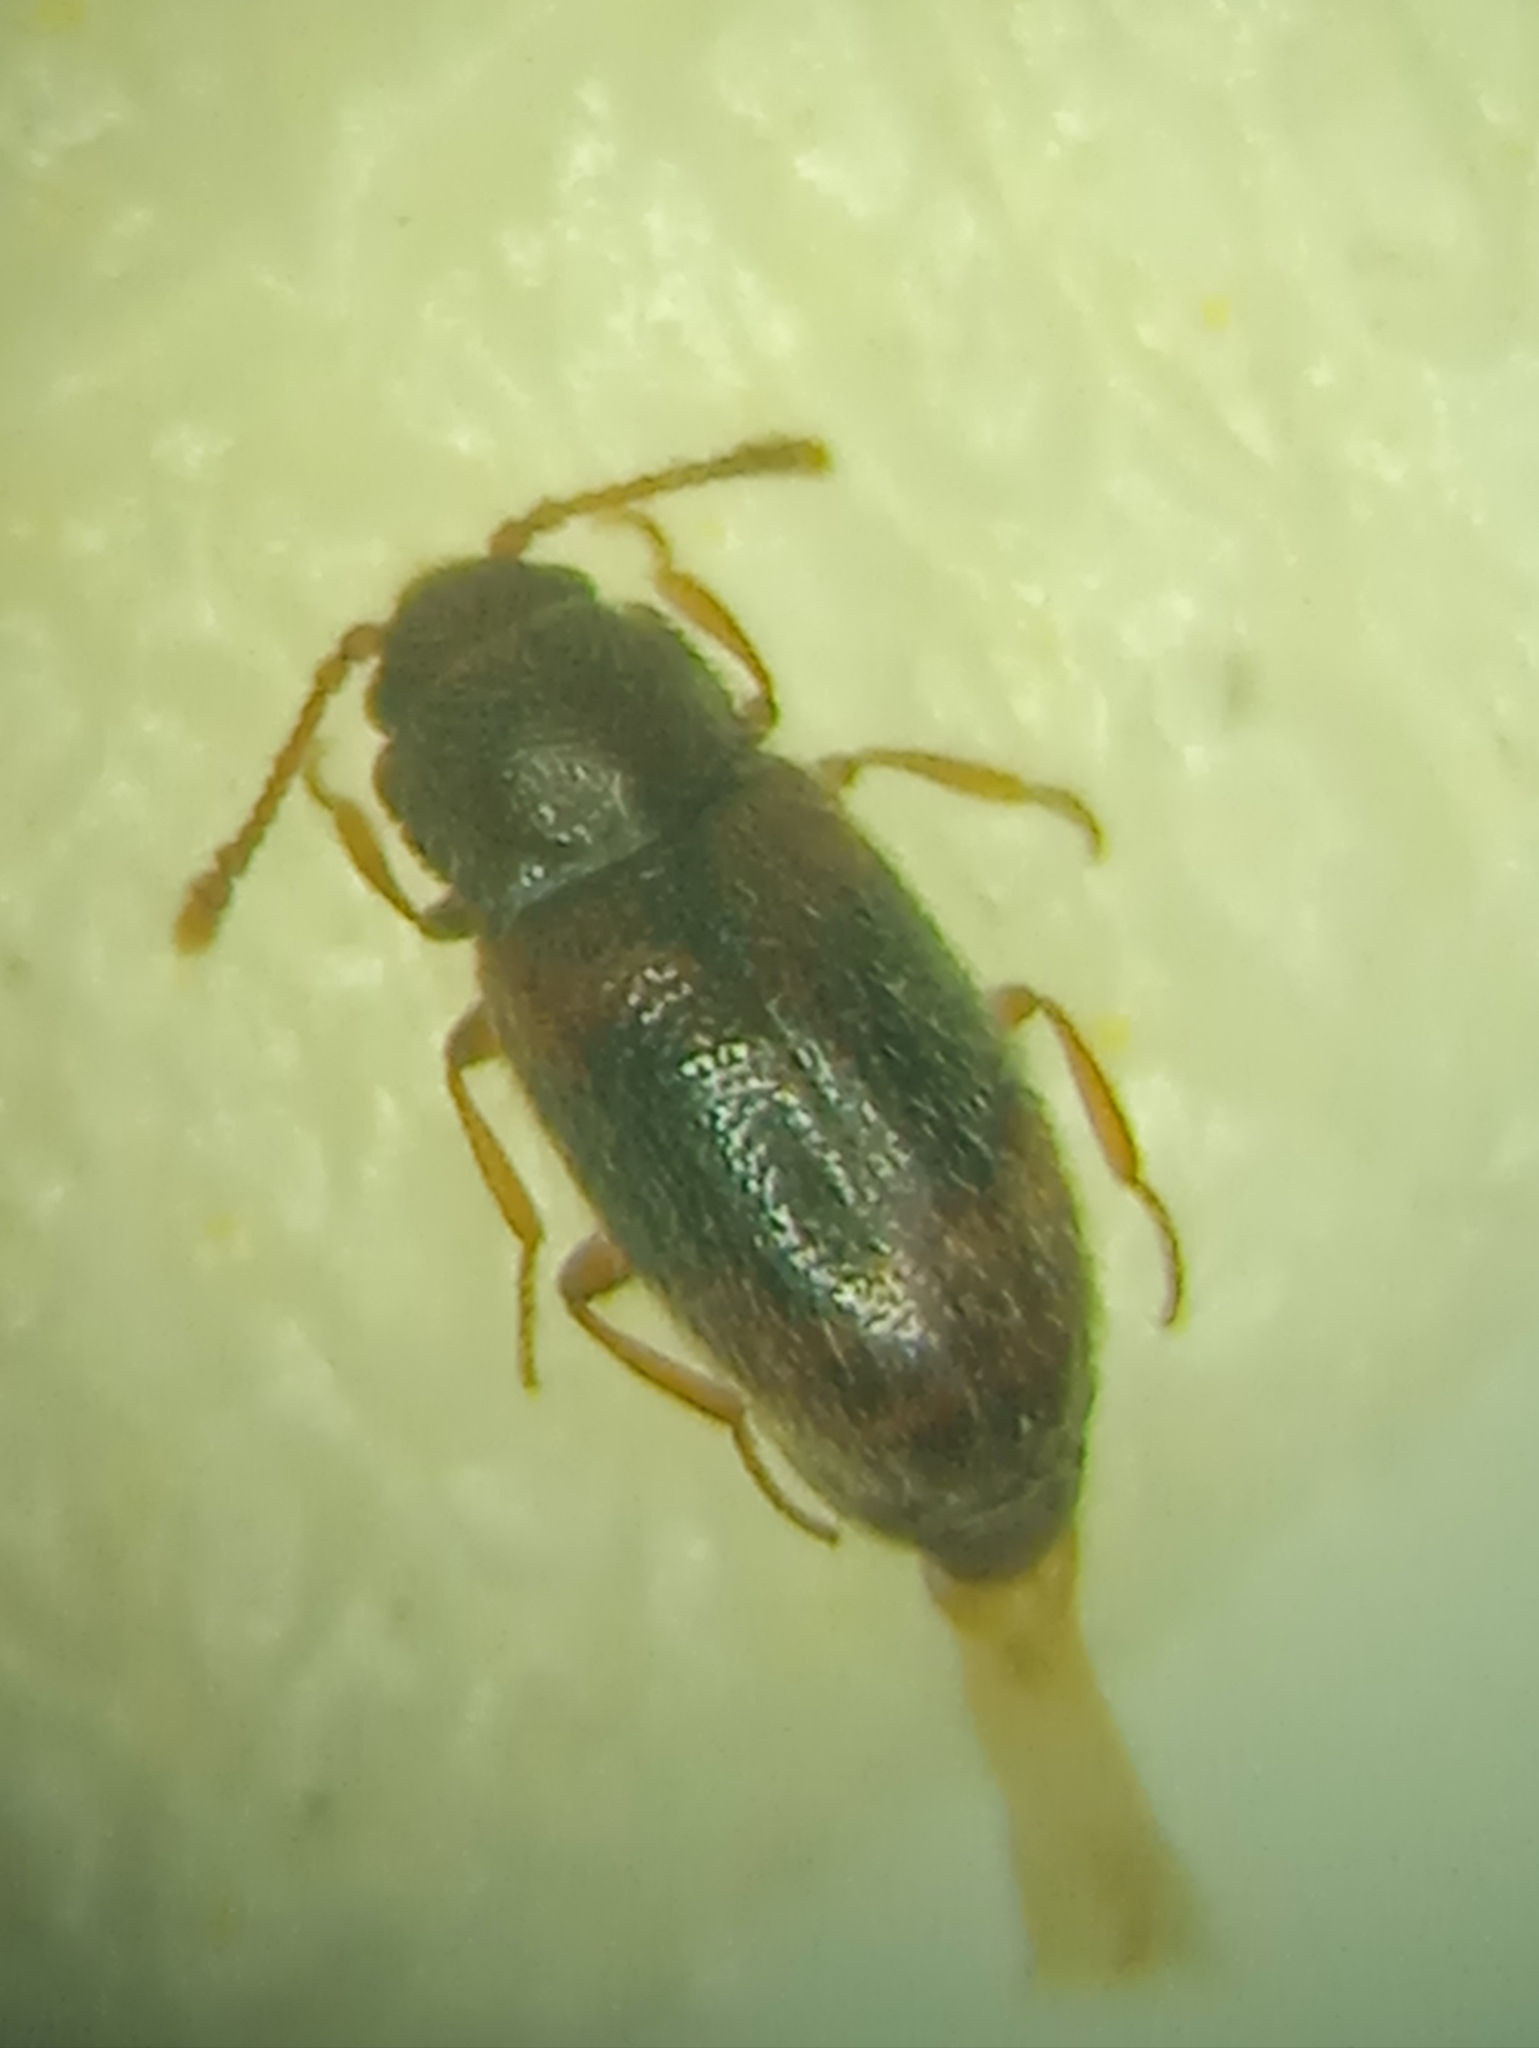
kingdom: Animalia
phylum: Arthropoda
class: Insecta
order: Coleoptera
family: Cryptophagidae
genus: Micrambe
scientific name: Micrambe bimaculata
